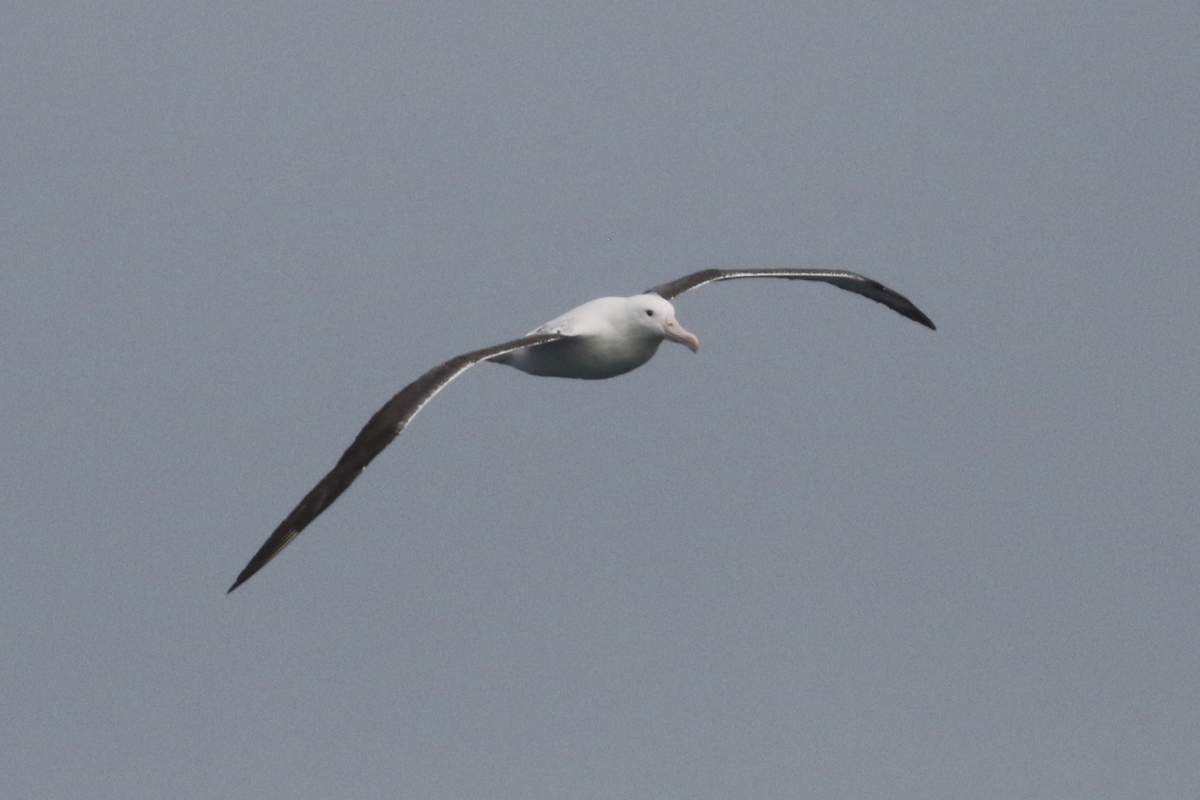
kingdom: Animalia
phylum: Chordata
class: Aves
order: Procellariiformes
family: Diomedeidae
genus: Diomedea
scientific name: Diomedea epomophora
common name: Southern royal albatross
